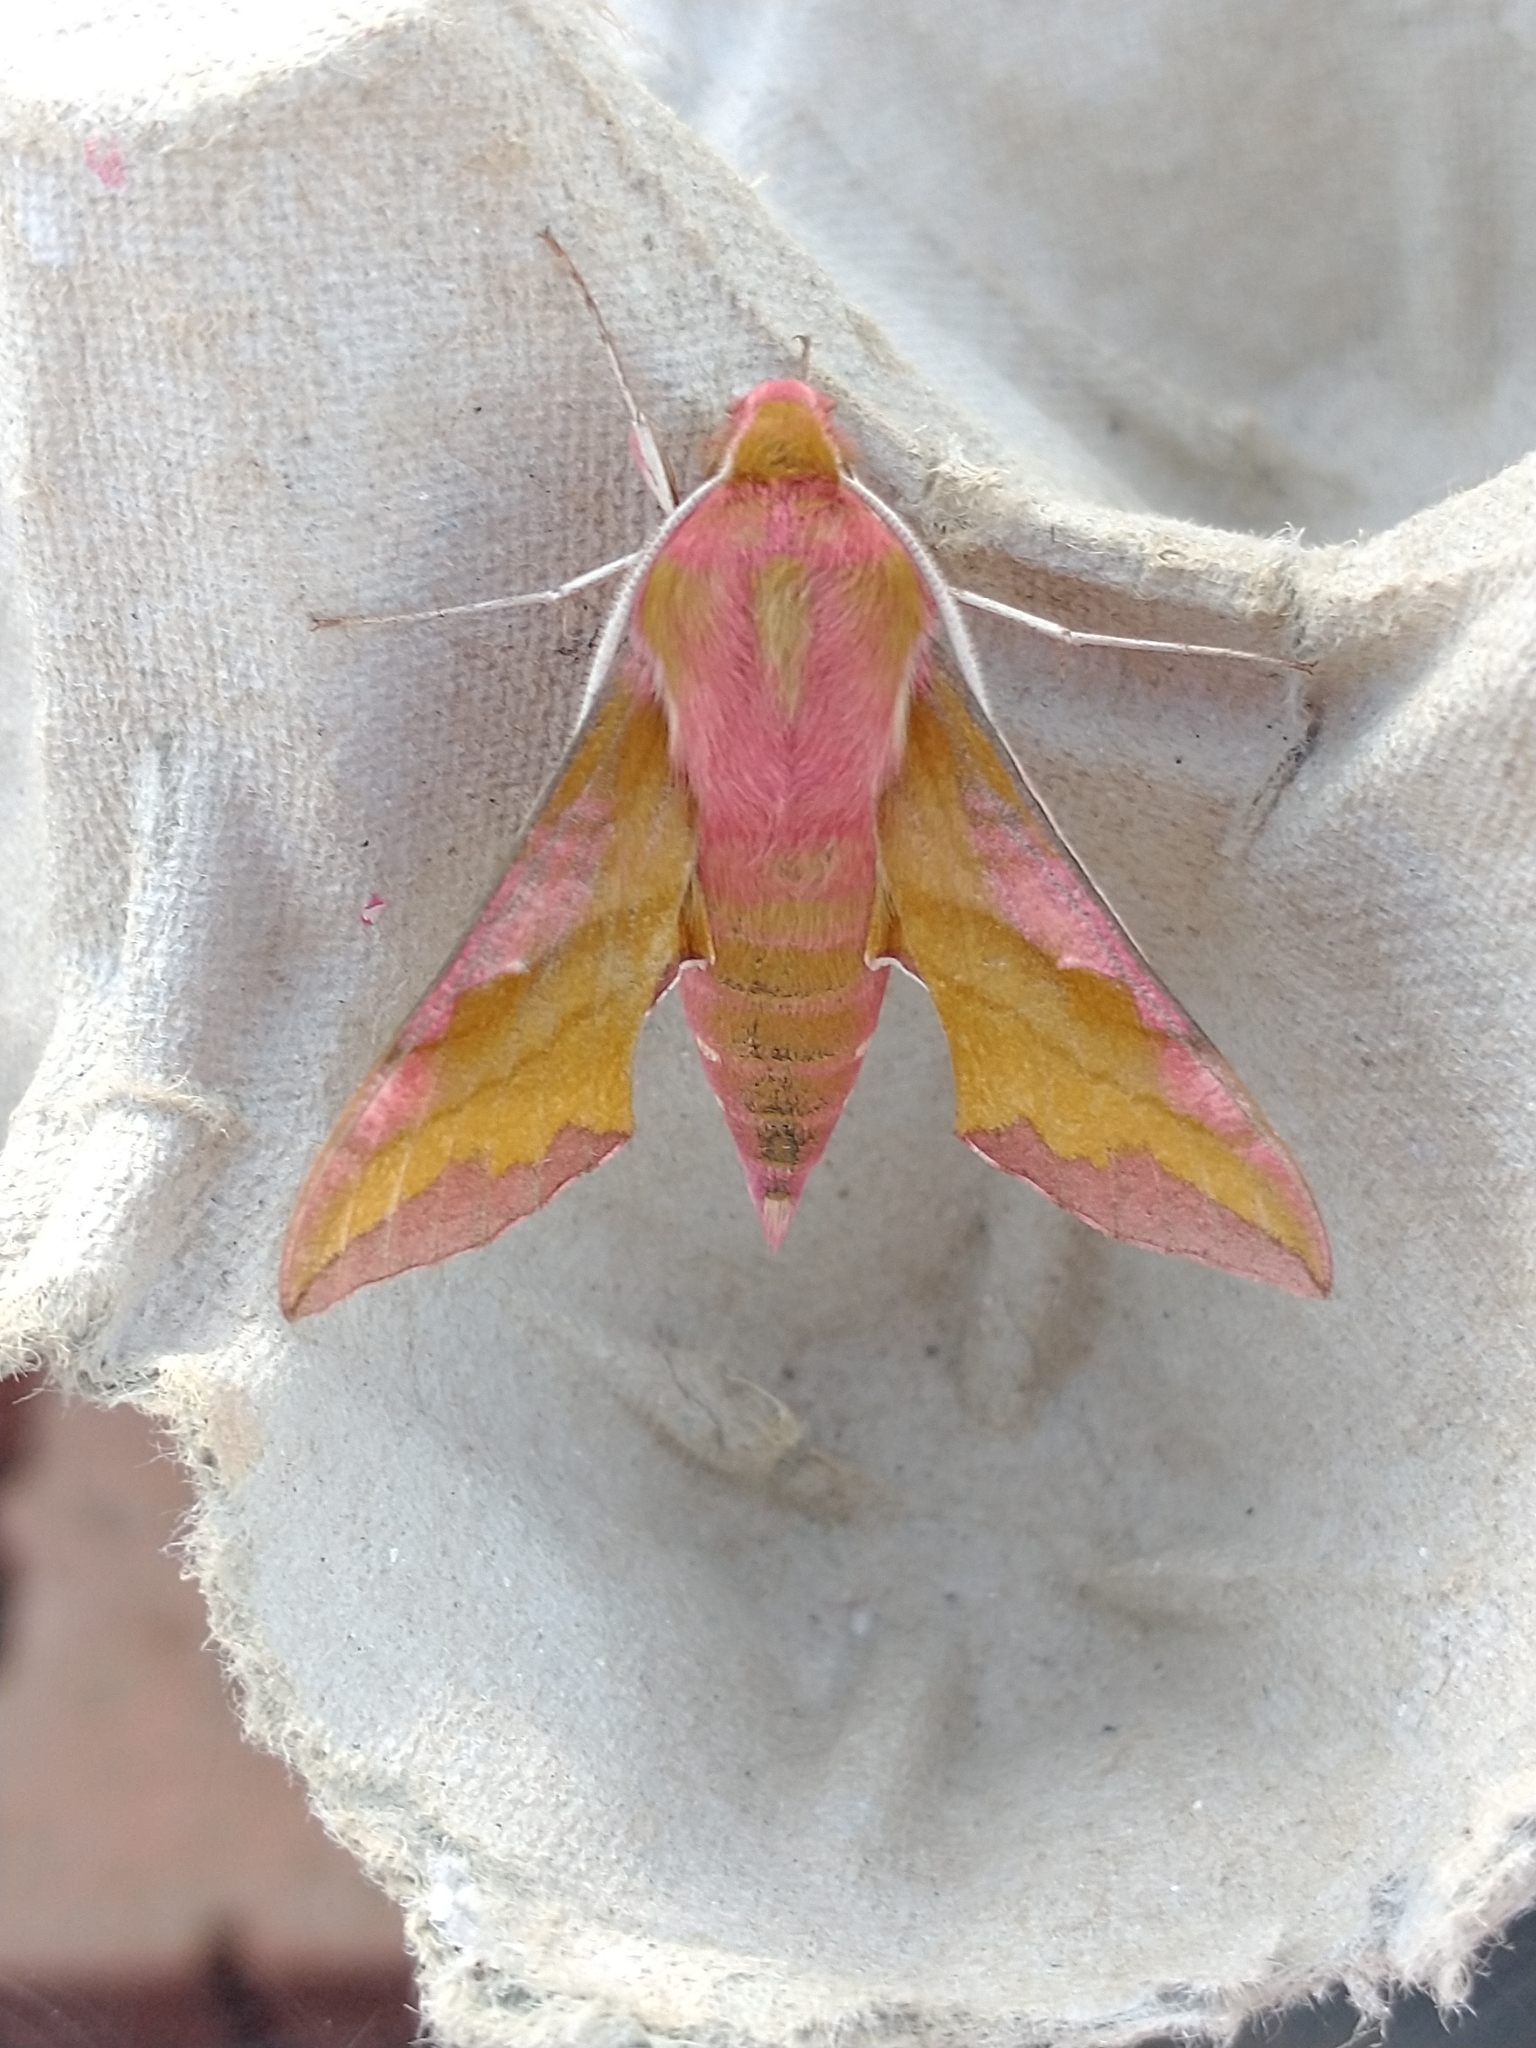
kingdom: Animalia
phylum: Arthropoda
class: Insecta
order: Lepidoptera
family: Sphingidae
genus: Deilephila
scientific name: Deilephila porcellus
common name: Small elephant hawk-moth
